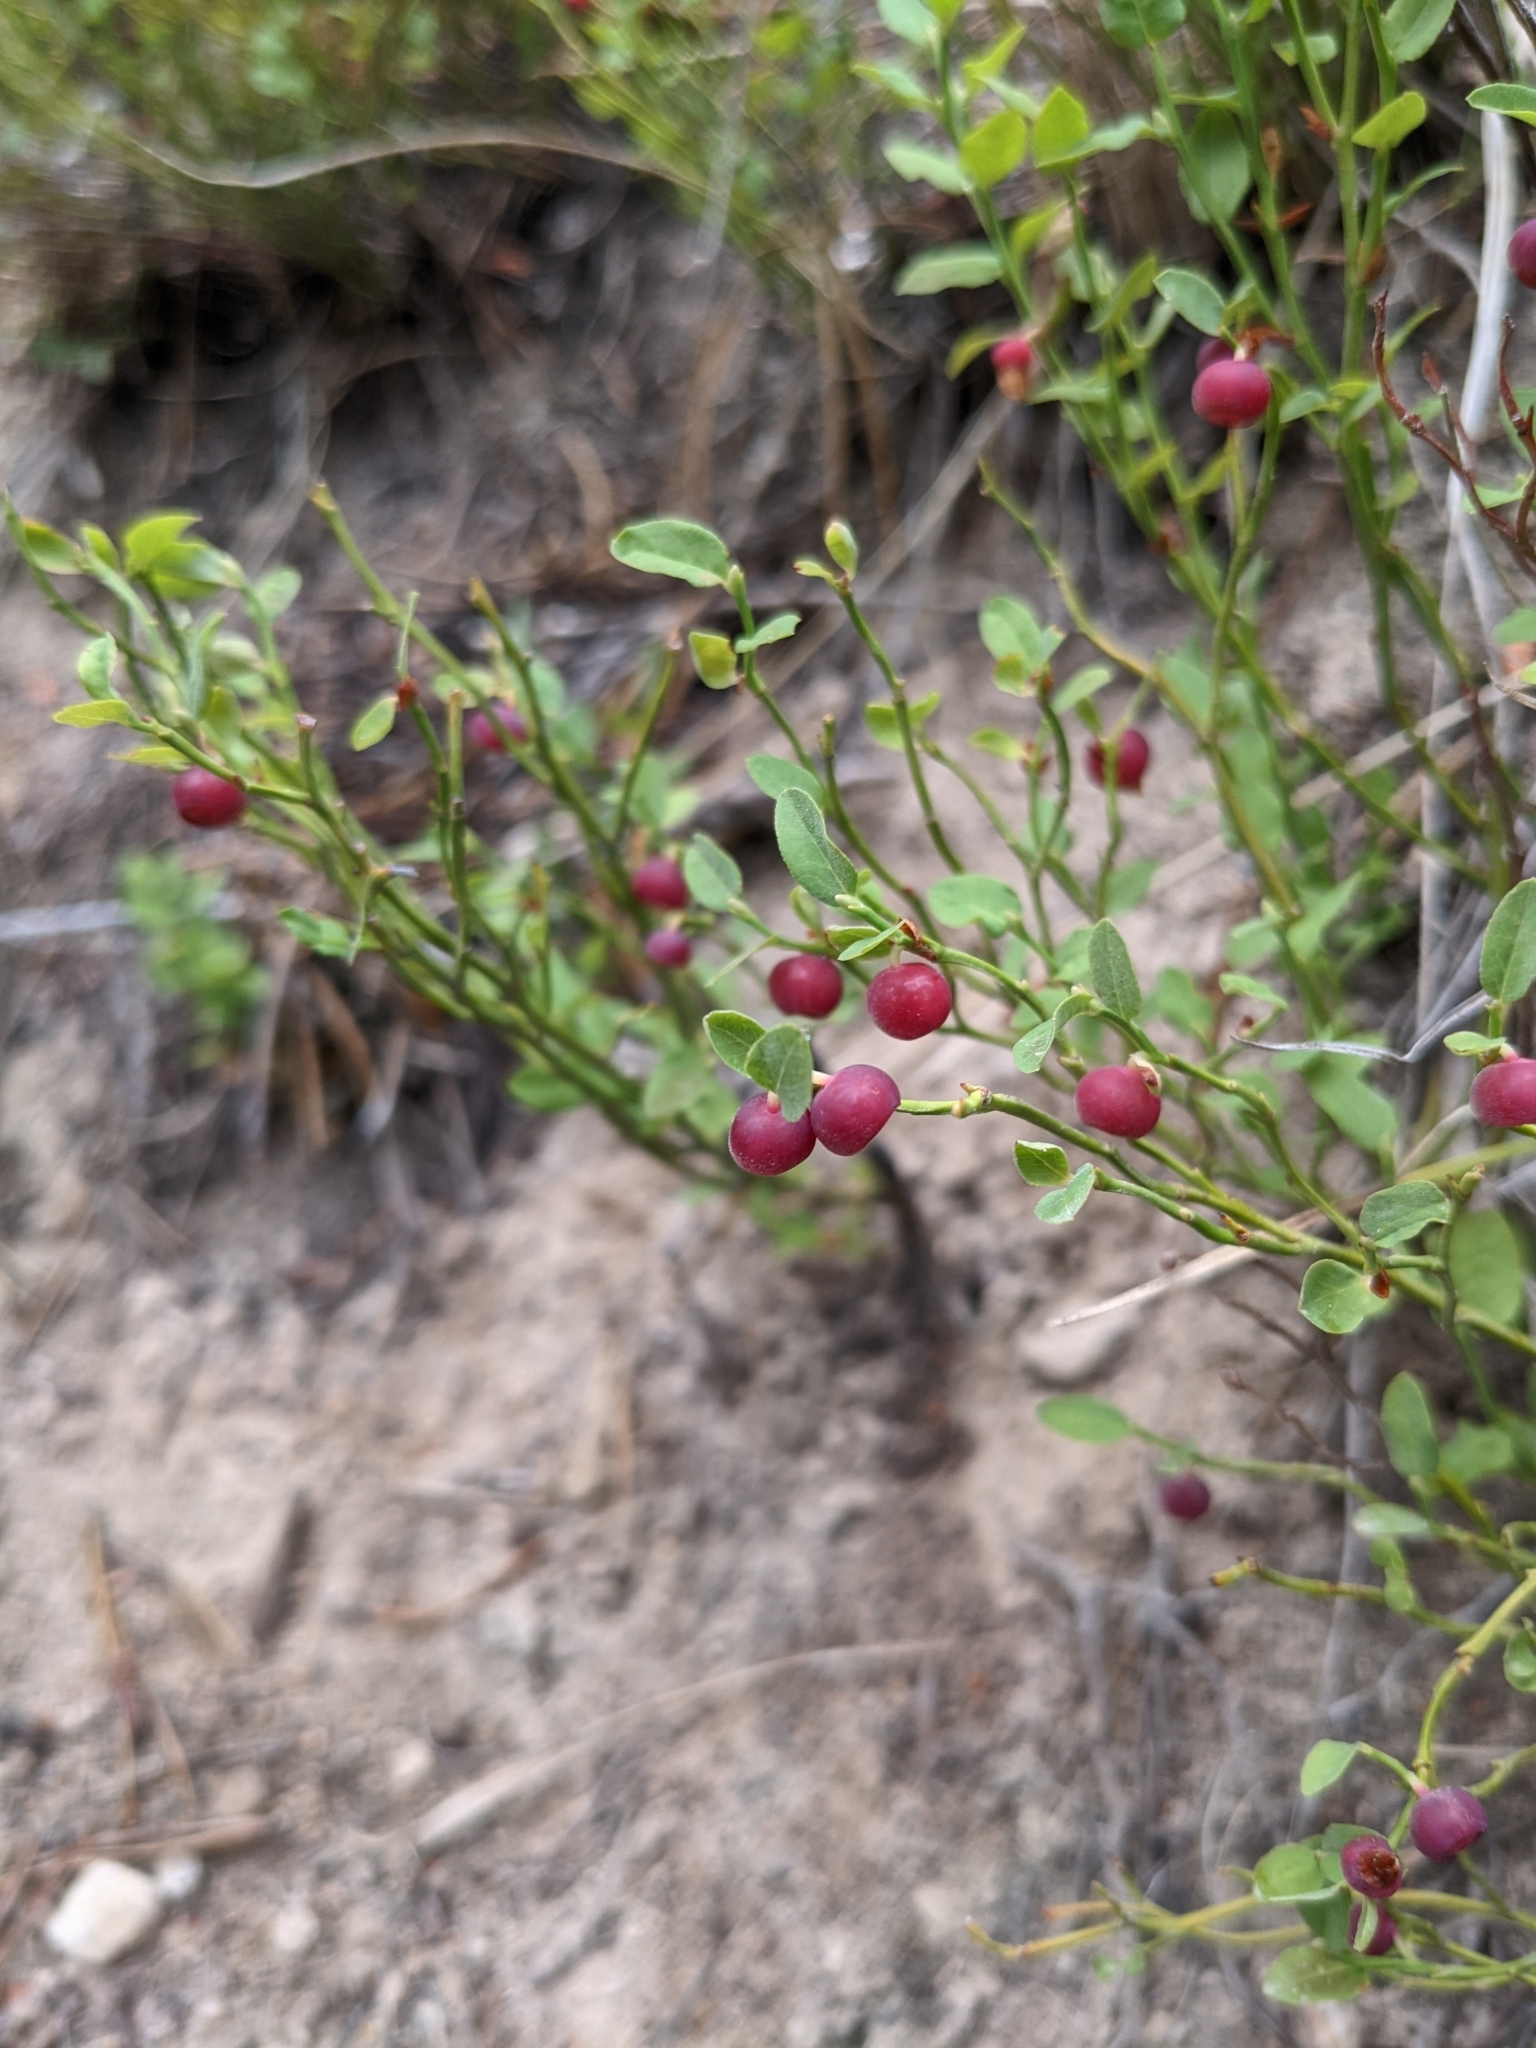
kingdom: Plantae
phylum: Tracheophyta
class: Magnoliopsida
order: Ericales
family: Ericaceae
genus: Vaccinium
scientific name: Vaccinium scoparium
